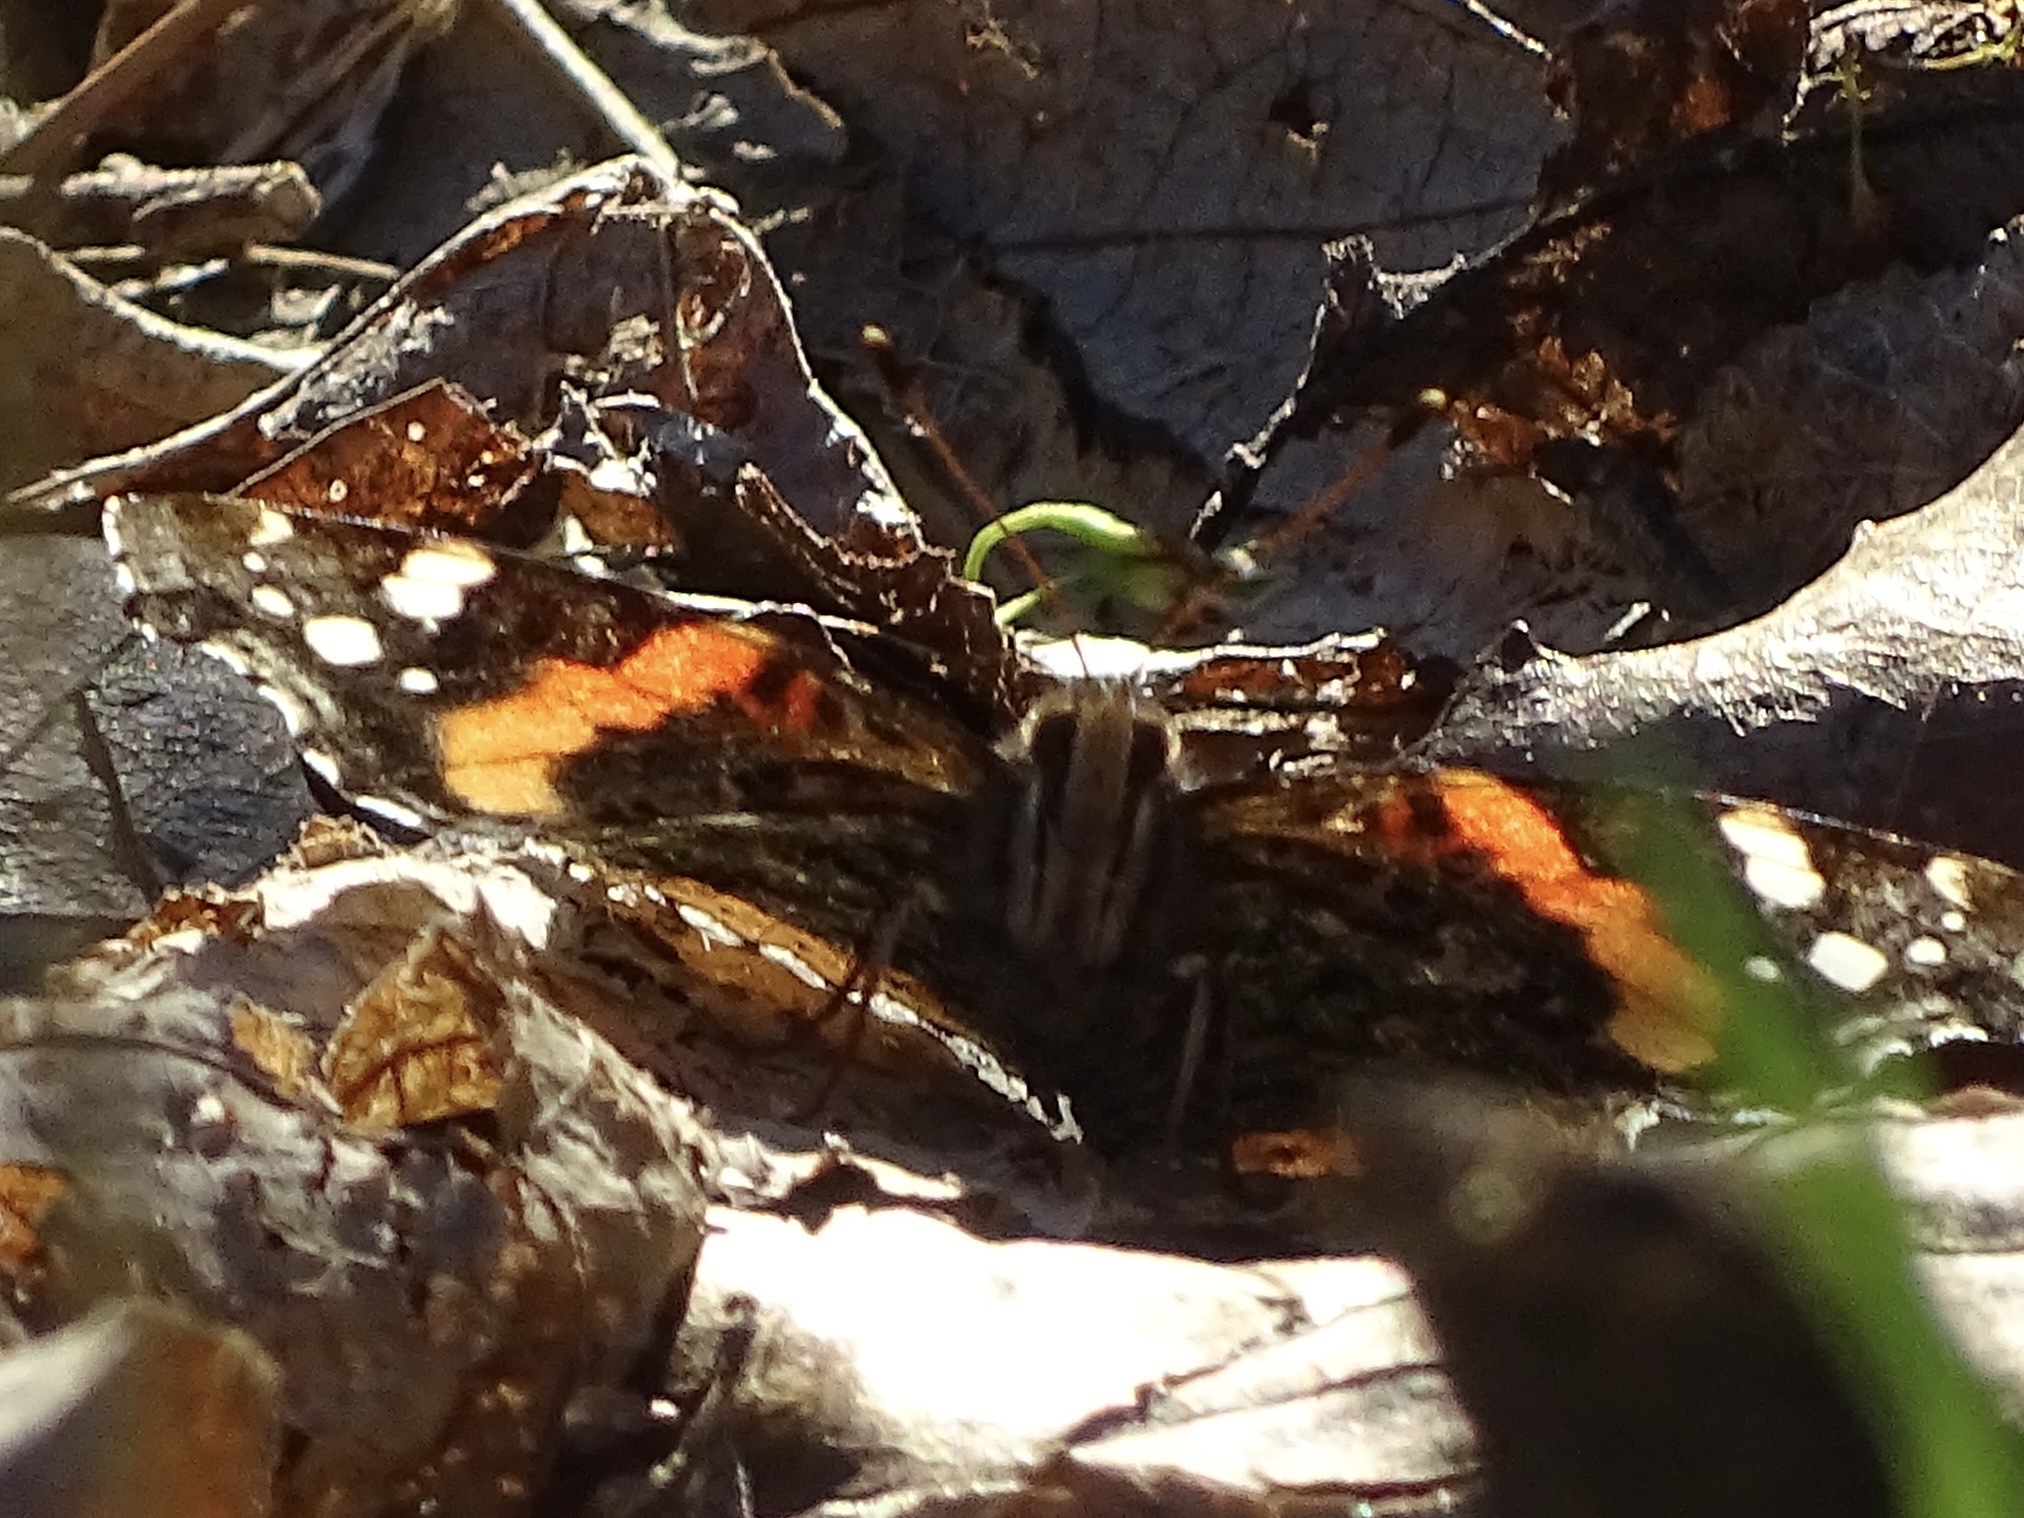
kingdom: Animalia
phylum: Arthropoda
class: Insecta
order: Lepidoptera
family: Nymphalidae
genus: Vanessa
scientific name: Vanessa atalanta
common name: Red admiral
